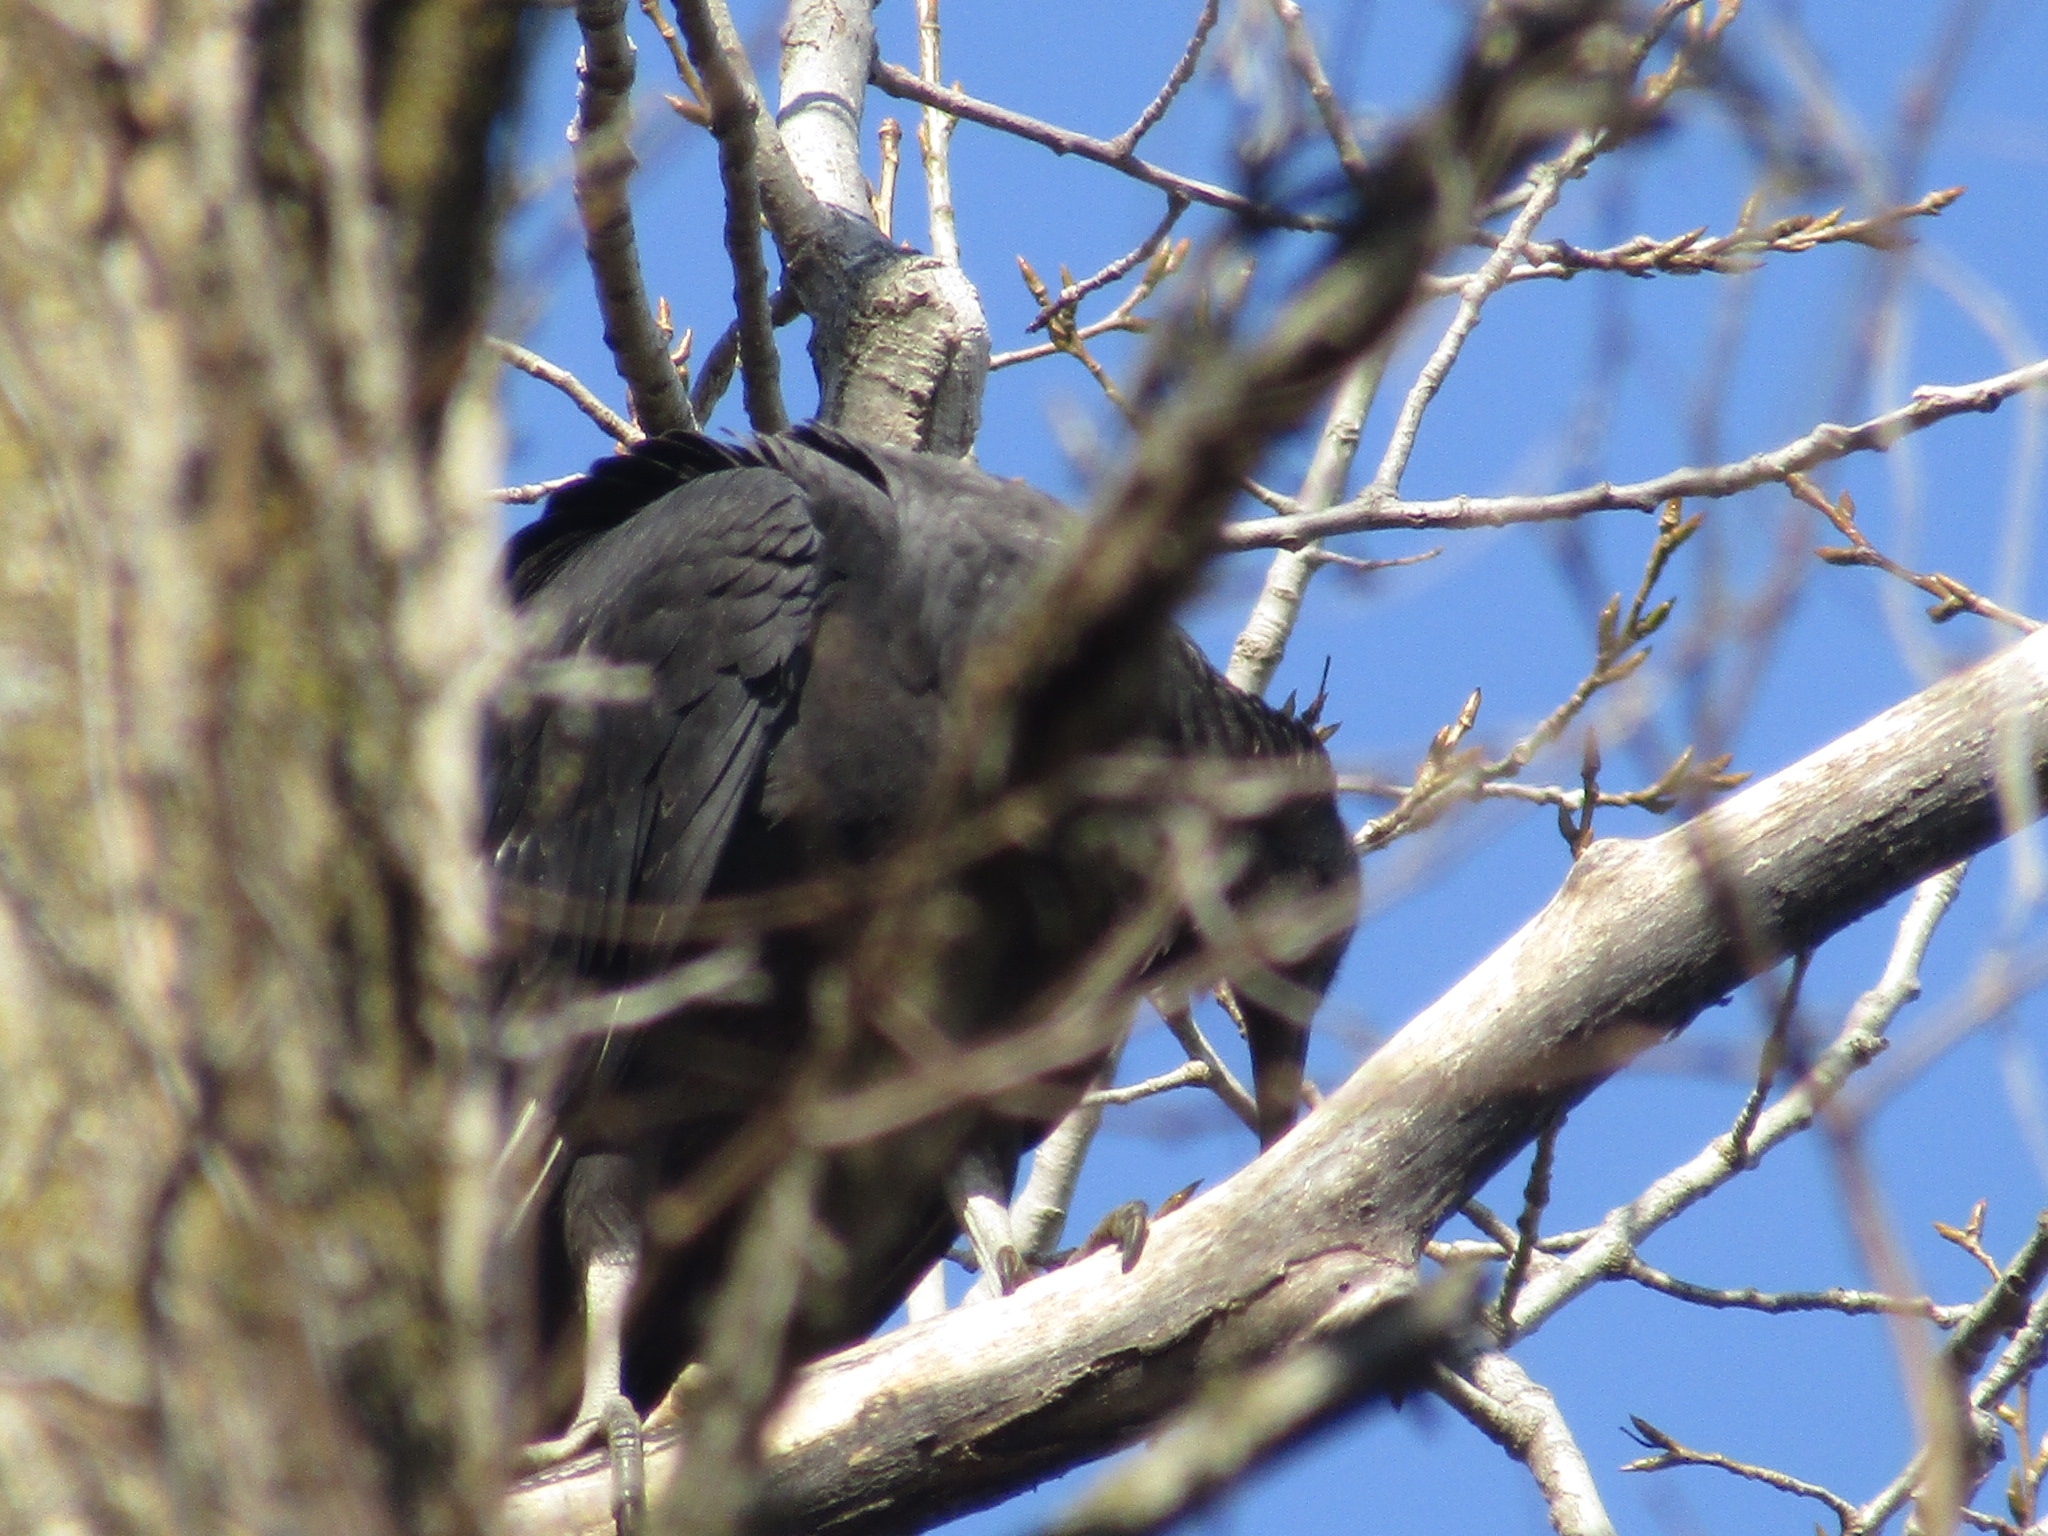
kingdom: Animalia
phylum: Chordata
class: Aves
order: Accipitriformes
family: Cathartidae
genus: Coragyps
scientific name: Coragyps atratus
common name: Black vulture
